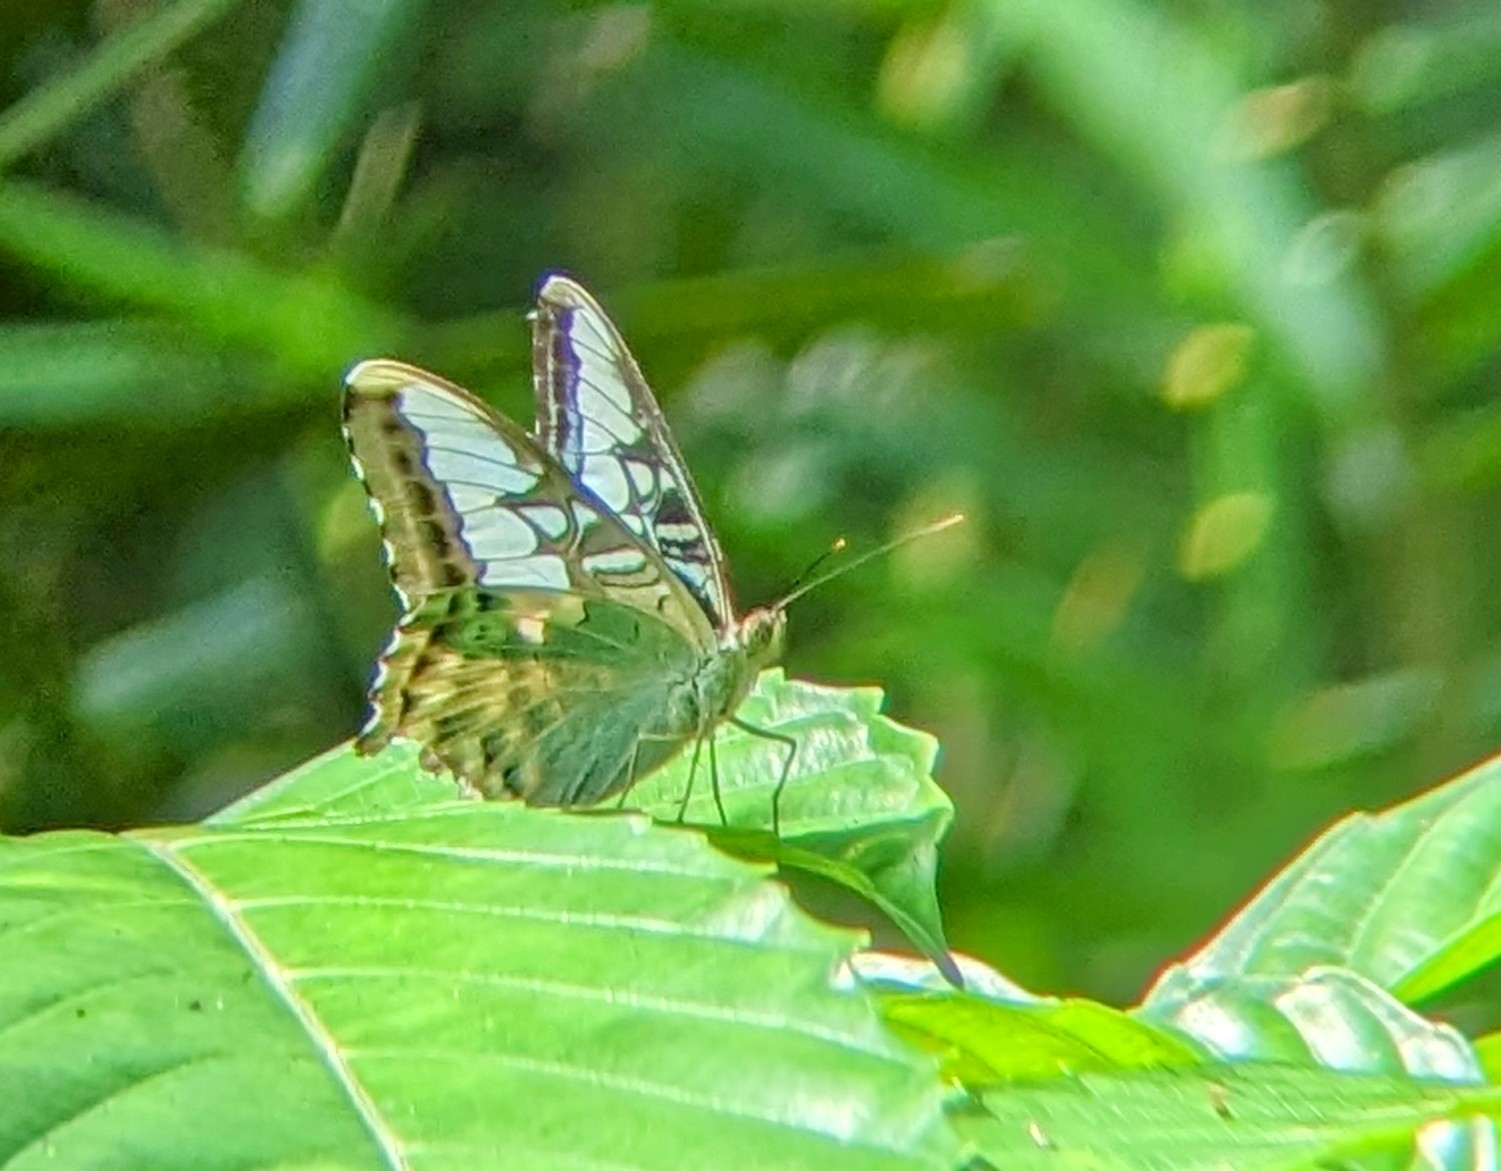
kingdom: Animalia
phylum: Arthropoda
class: Insecta
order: Lepidoptera
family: Nymphalidae
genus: Kallima
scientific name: Kallima sylvia
